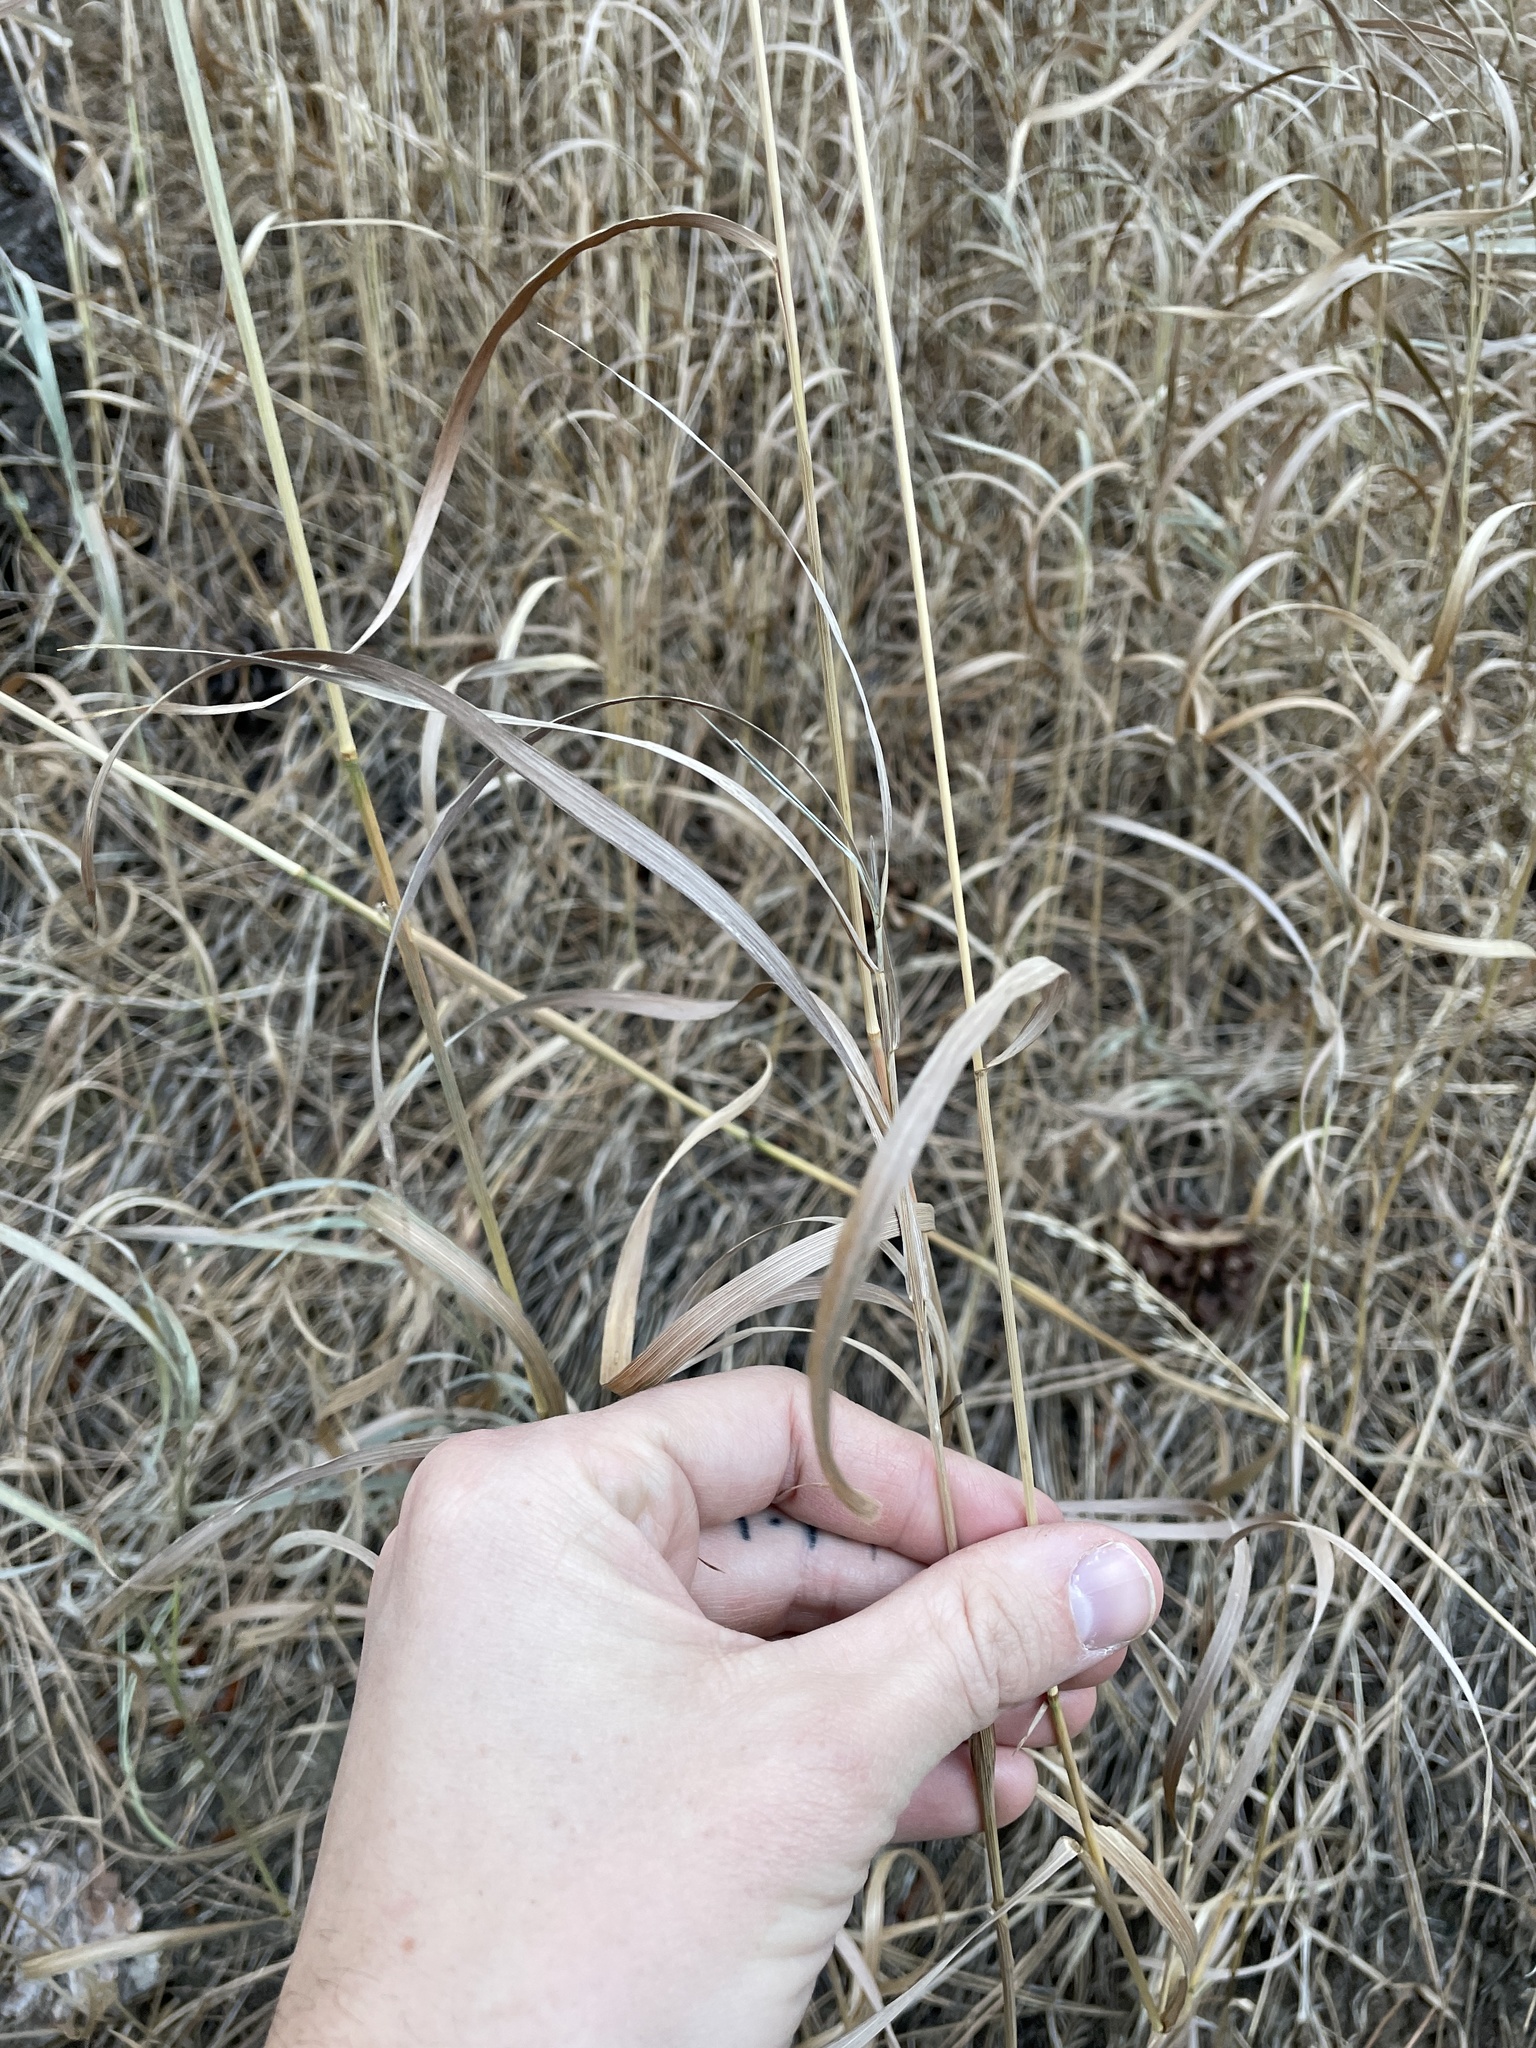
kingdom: Plantae
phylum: Tracheophyta
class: Liliopsida
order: Poales
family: Poaceae
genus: Bromus
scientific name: Bromus inermis
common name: Smooth brome
